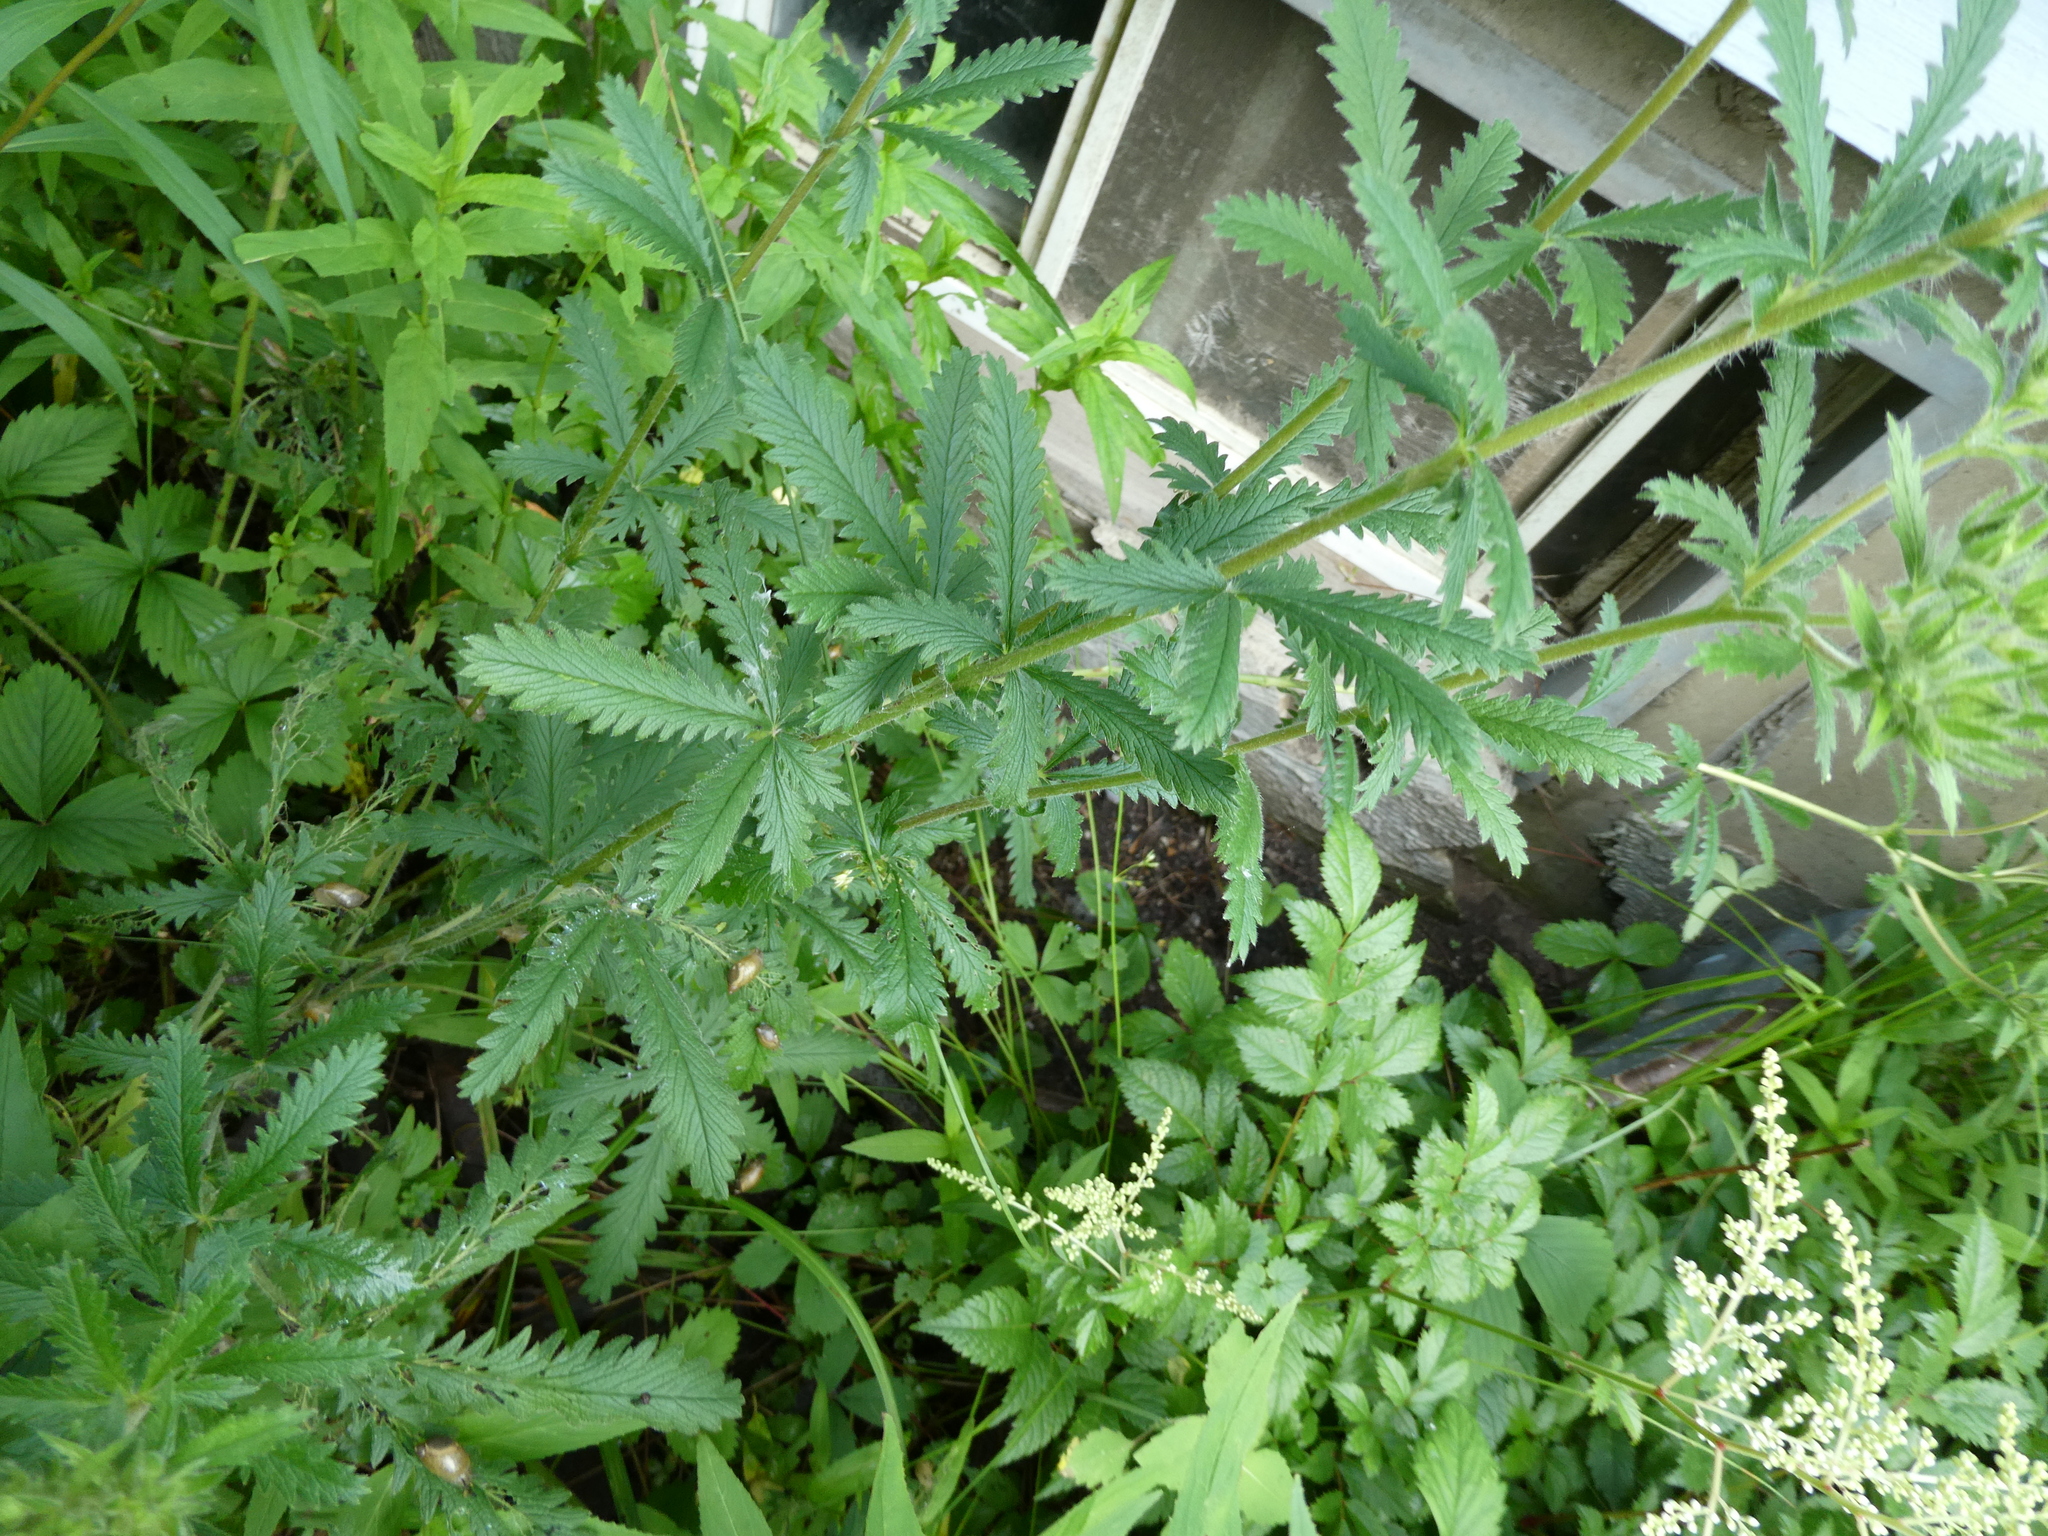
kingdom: Plantae
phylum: Tracheophyta
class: Magnoliopsida
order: Rosales
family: Rosaceae
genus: Potentilla
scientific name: Potentilla recta
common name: Sulphur cinquefoil
